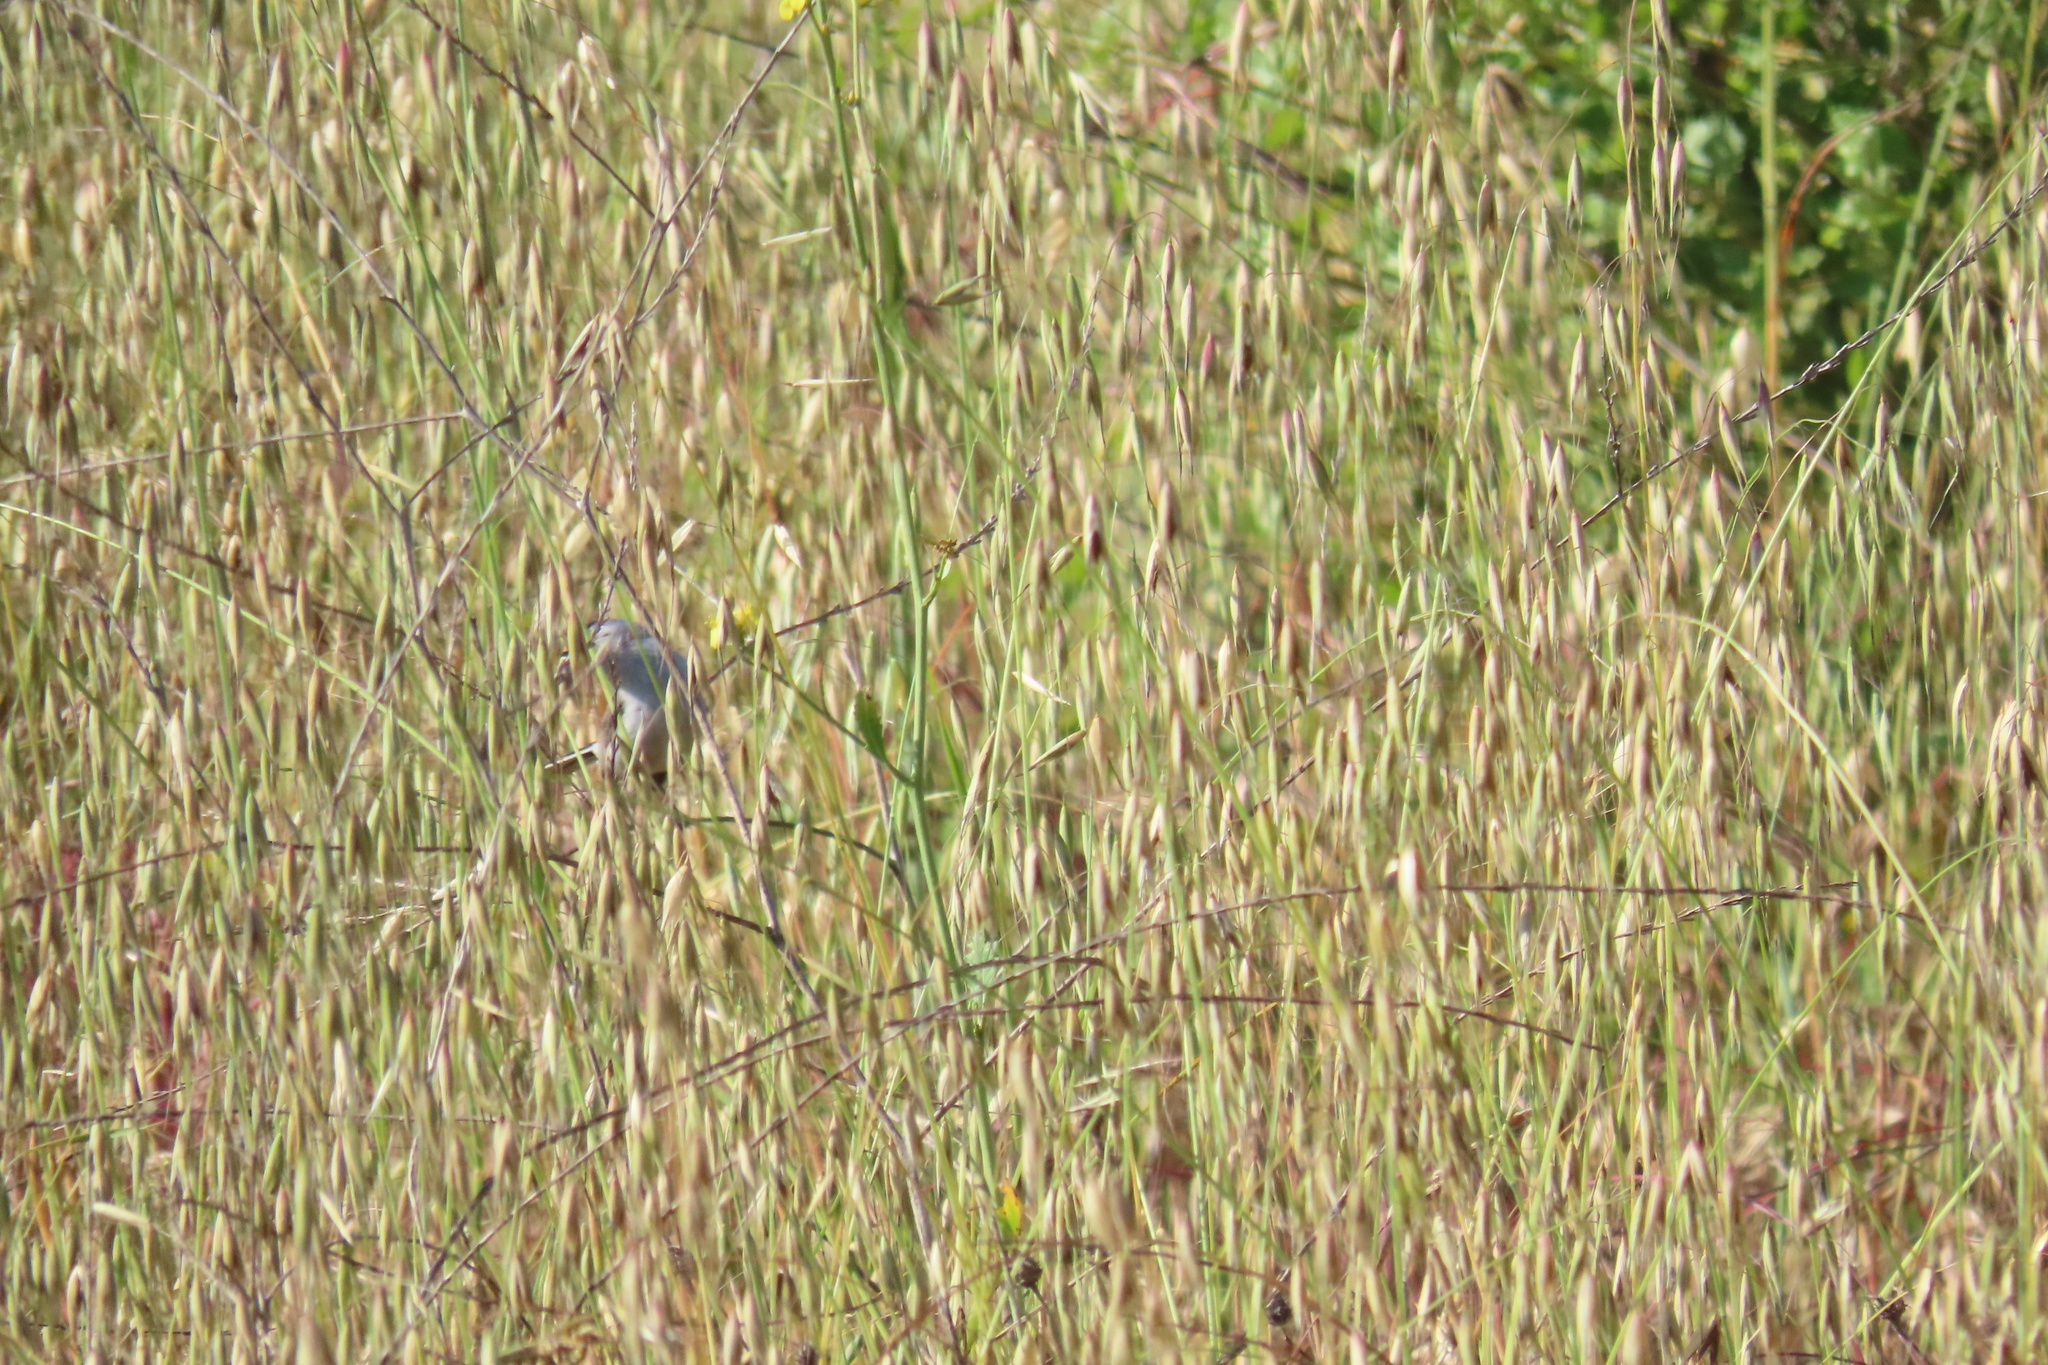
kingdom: Animalia
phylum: Chordata
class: Aves
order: Passeriformes
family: Polioptilidae
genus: Polioptila
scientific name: Polioptila caerulea
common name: Blue-gray gnatcatcher
